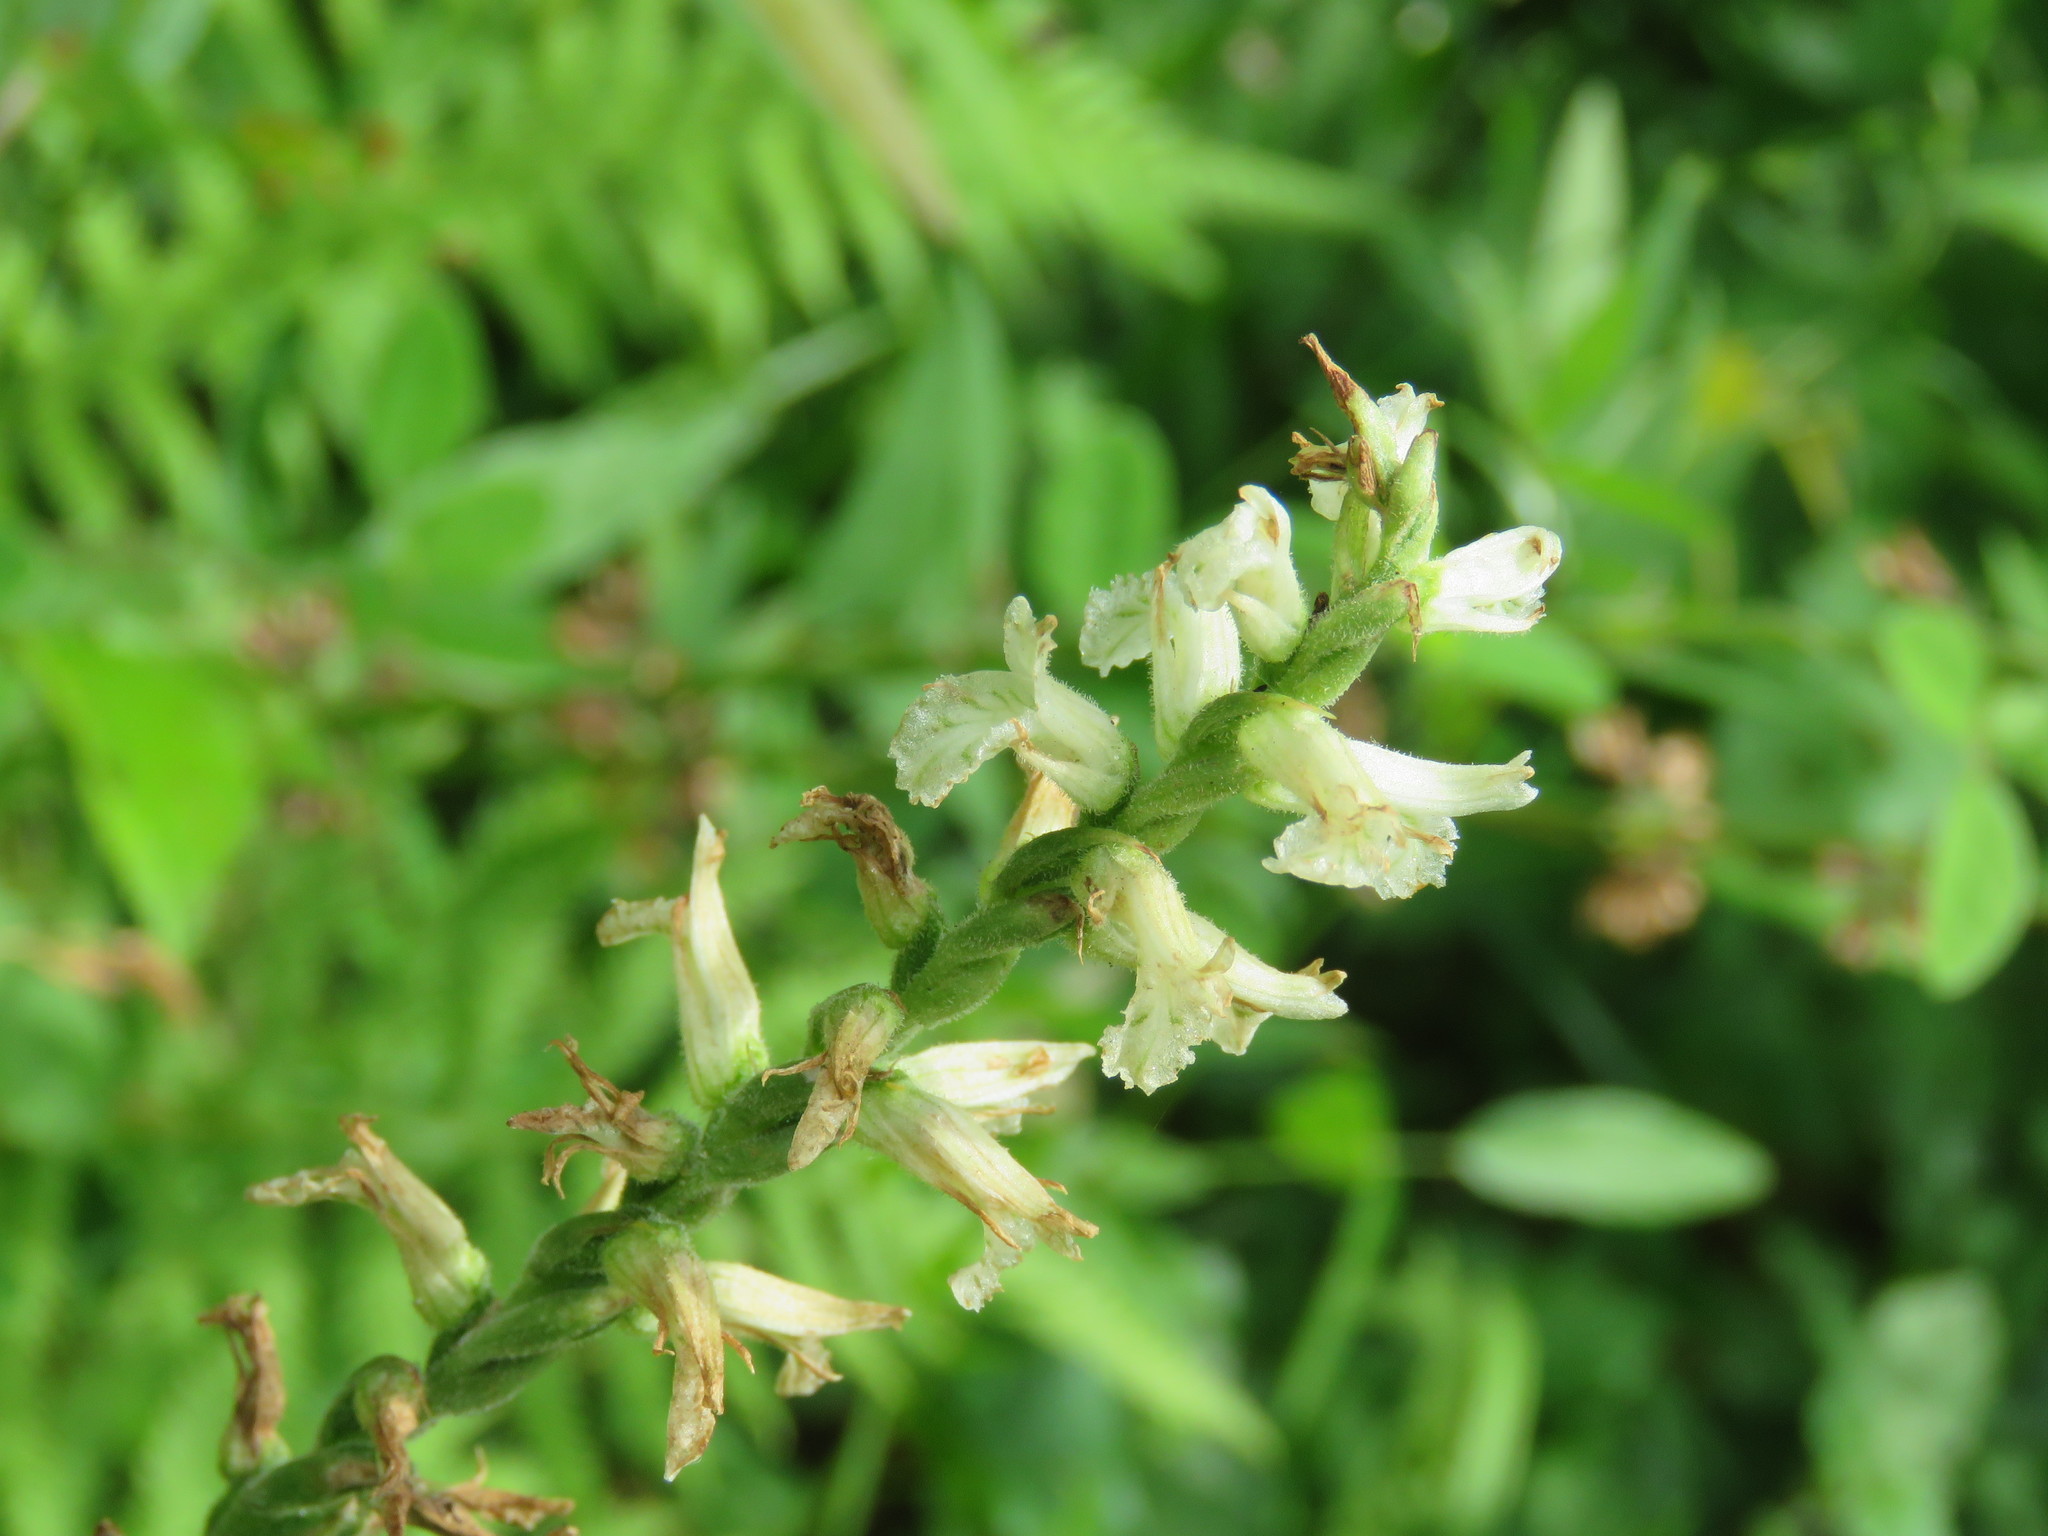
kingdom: Plantae
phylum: Tracheophyta
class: Liliopsida
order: Asparagales
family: Orchidaceae
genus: Spiranthes
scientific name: Spiranthes praecox
